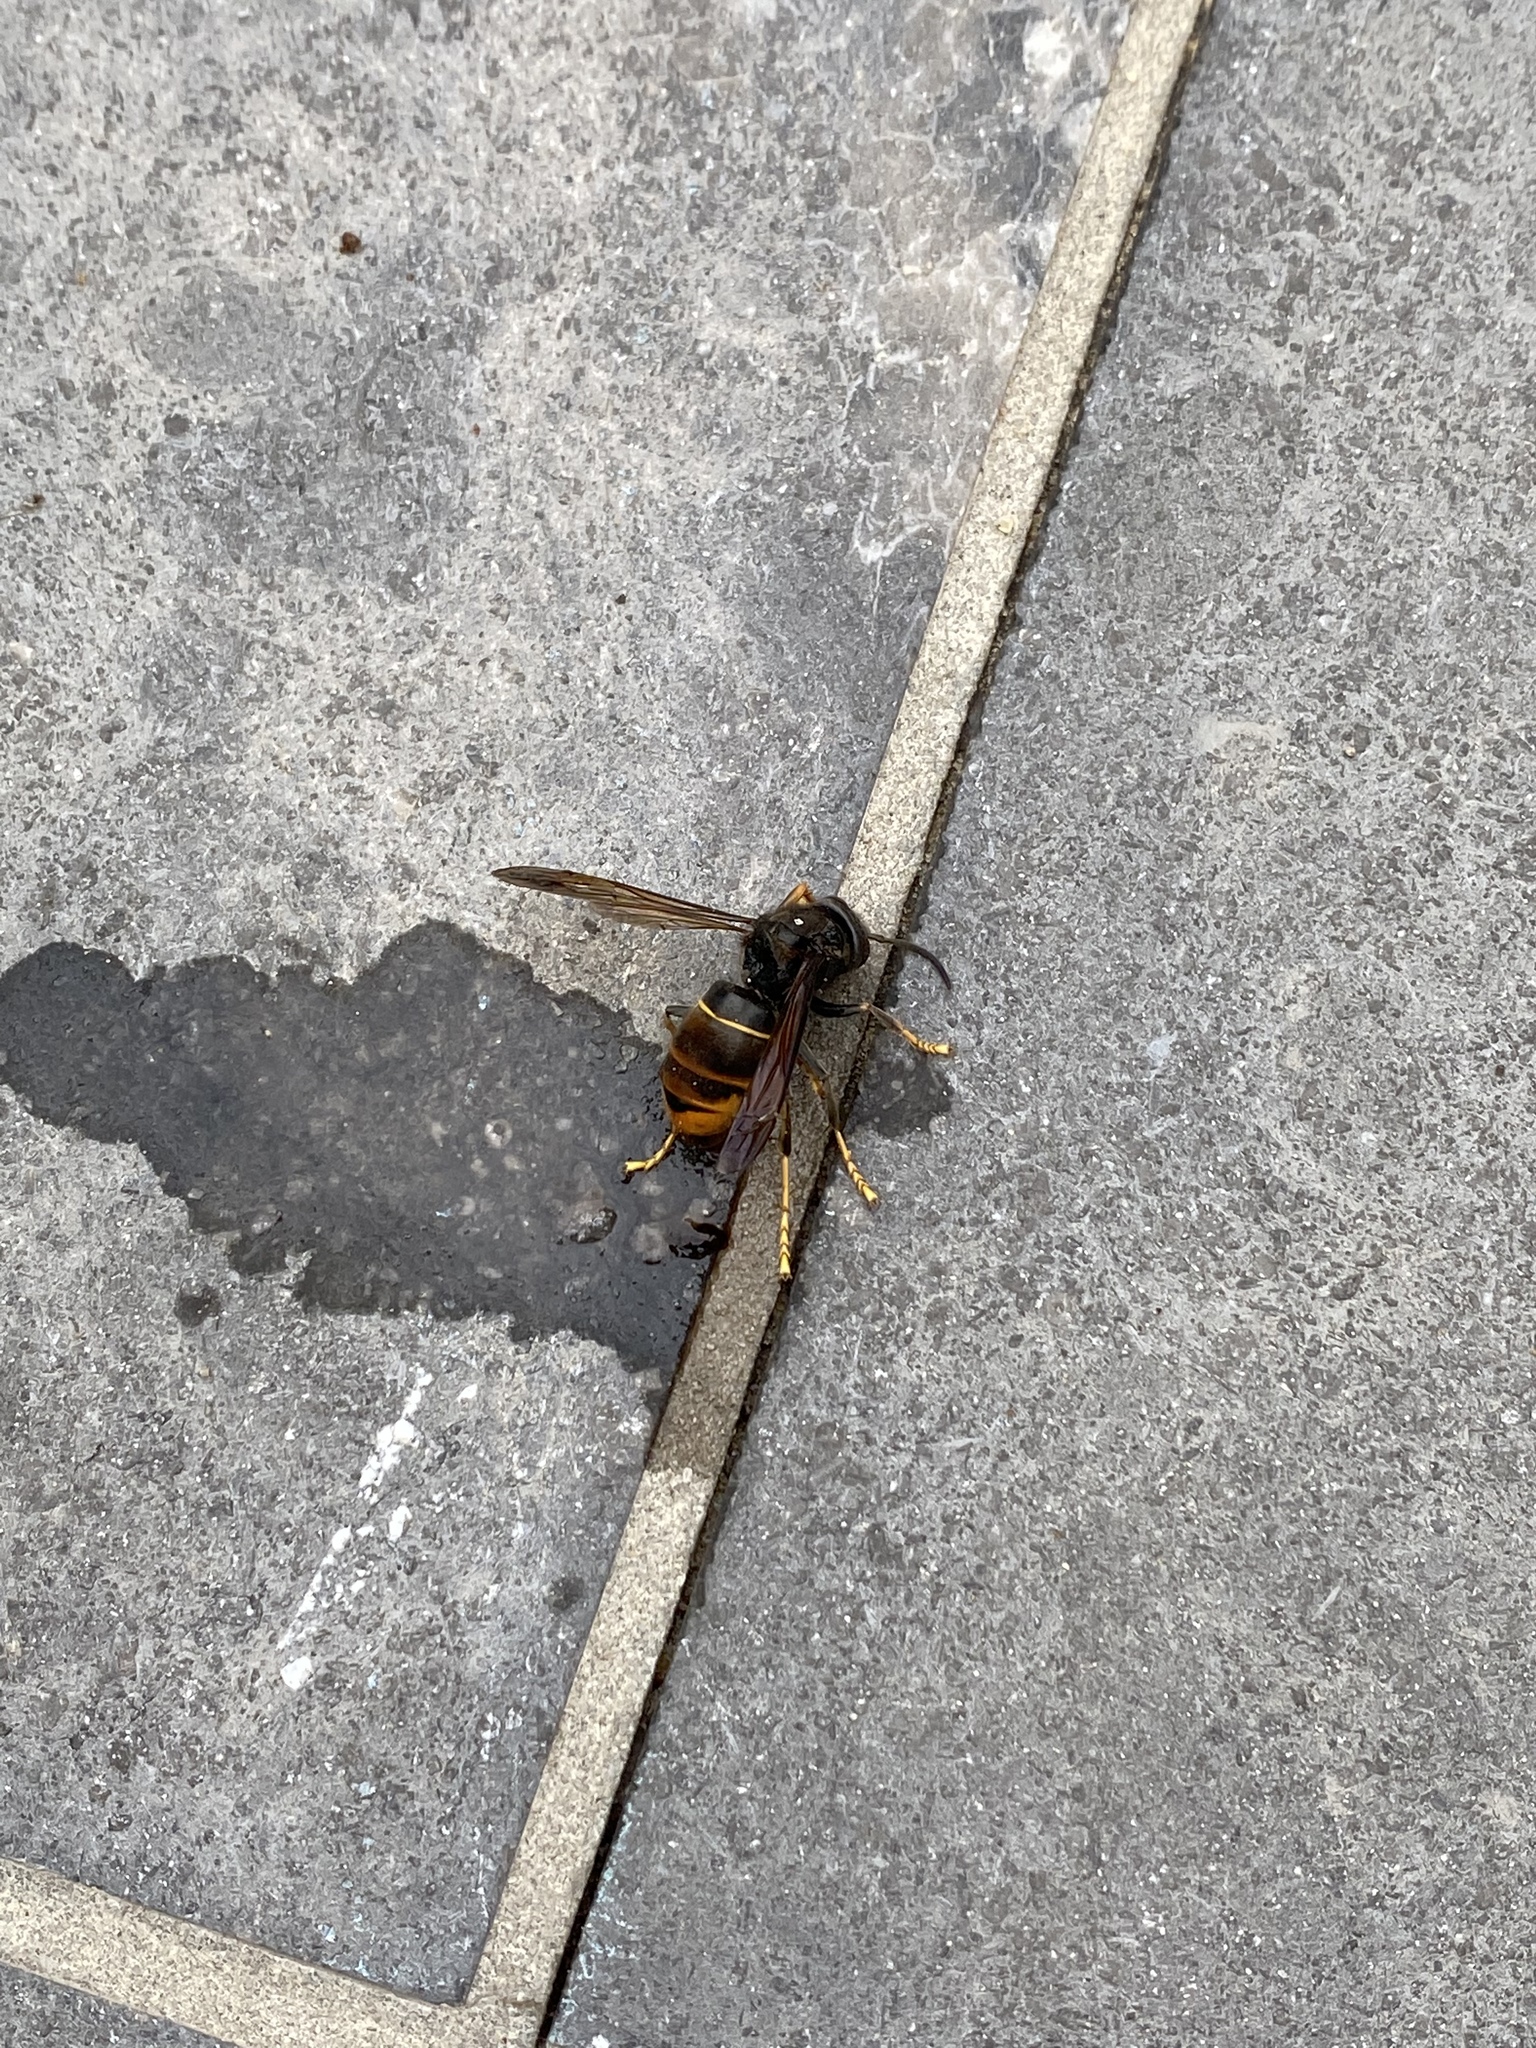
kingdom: Animalia
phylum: Arthropoda
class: Insecta
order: Hymenoptera
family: Vespidae
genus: Vespa
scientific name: Vespa velutina
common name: Asian hornet
